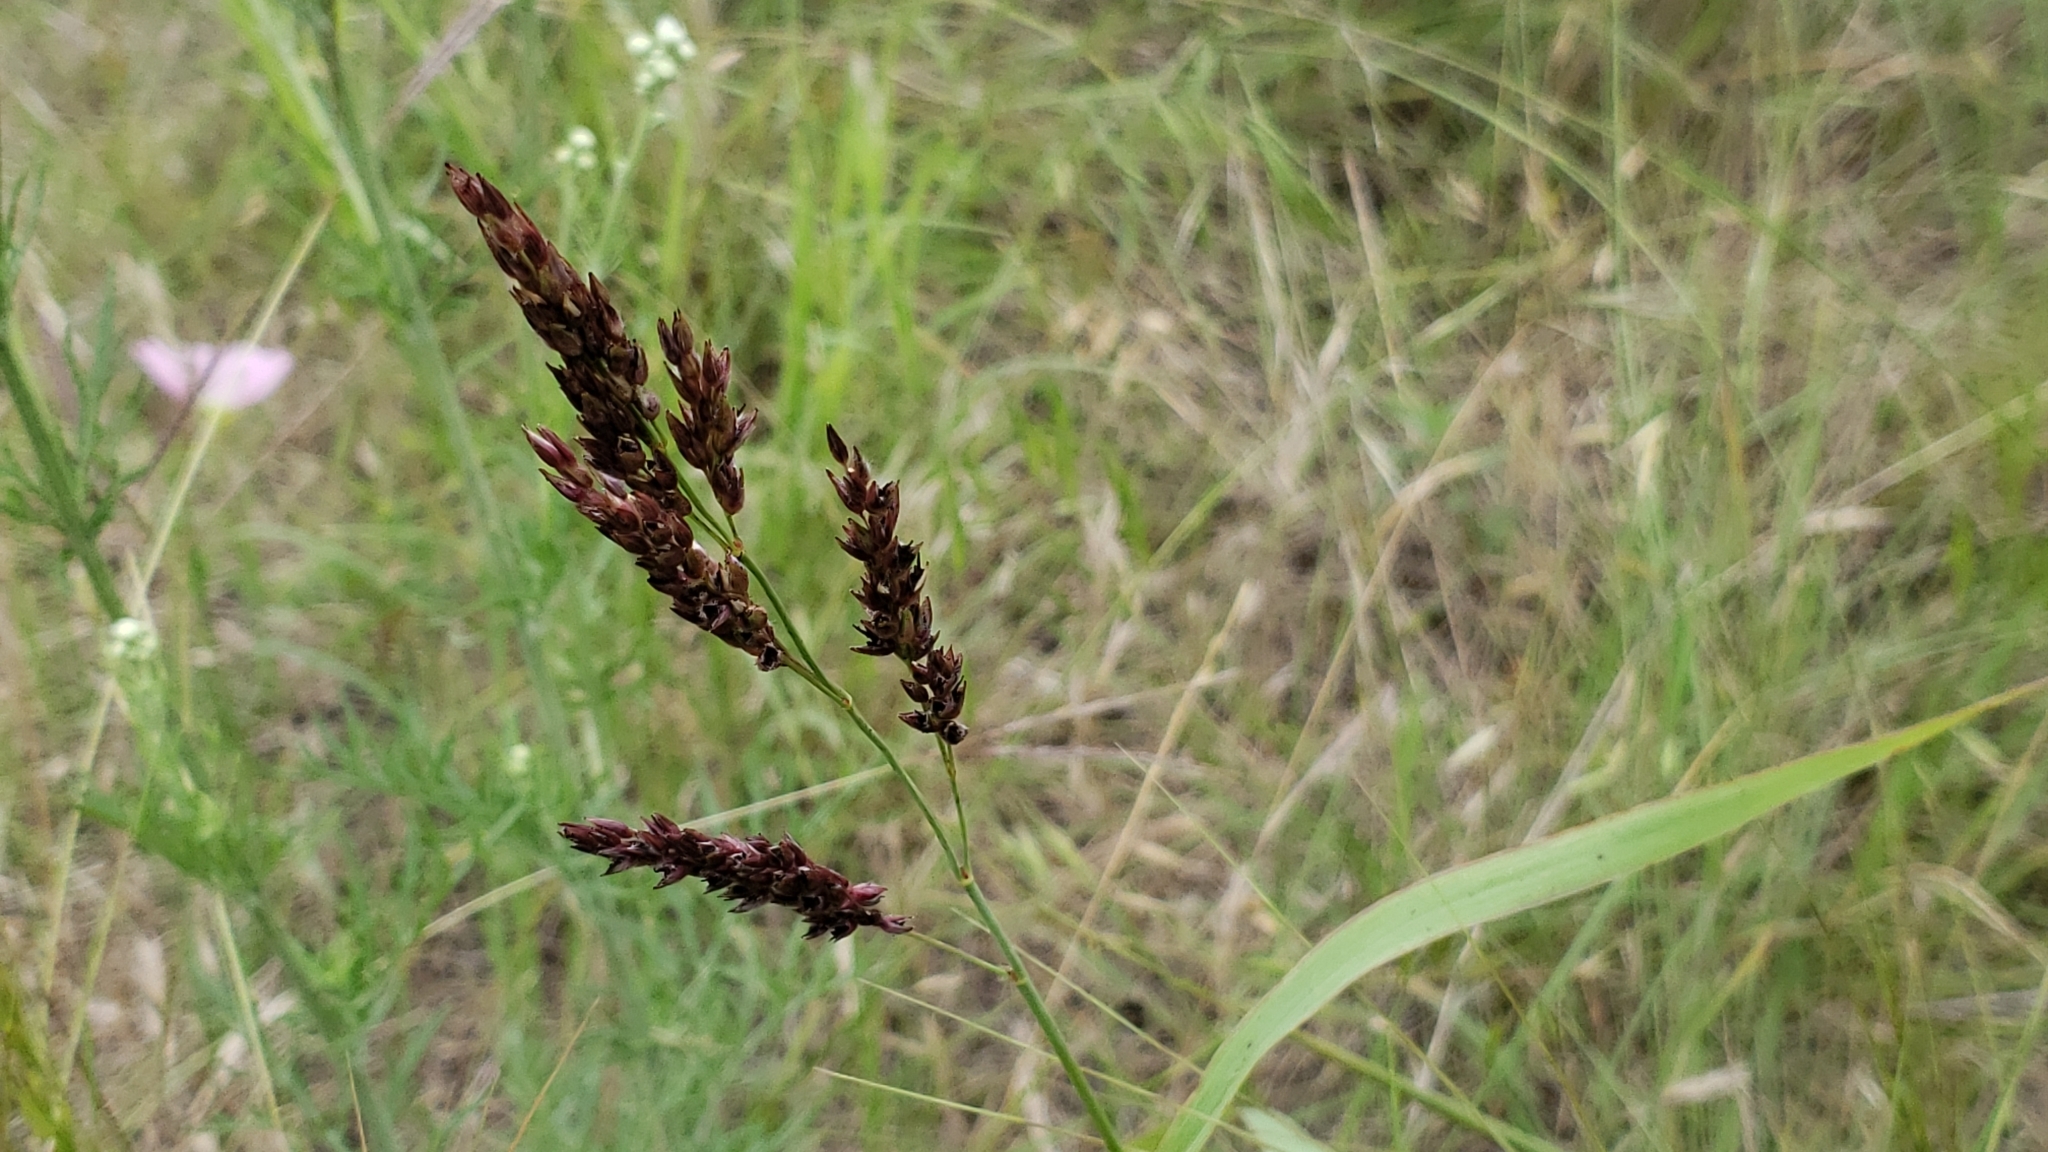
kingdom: Plantae
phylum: Tracheophyta
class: Liliopsida
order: Poales
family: Poaceae
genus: Sorghum
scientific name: Sorghum halepense
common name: Johnson-grass
